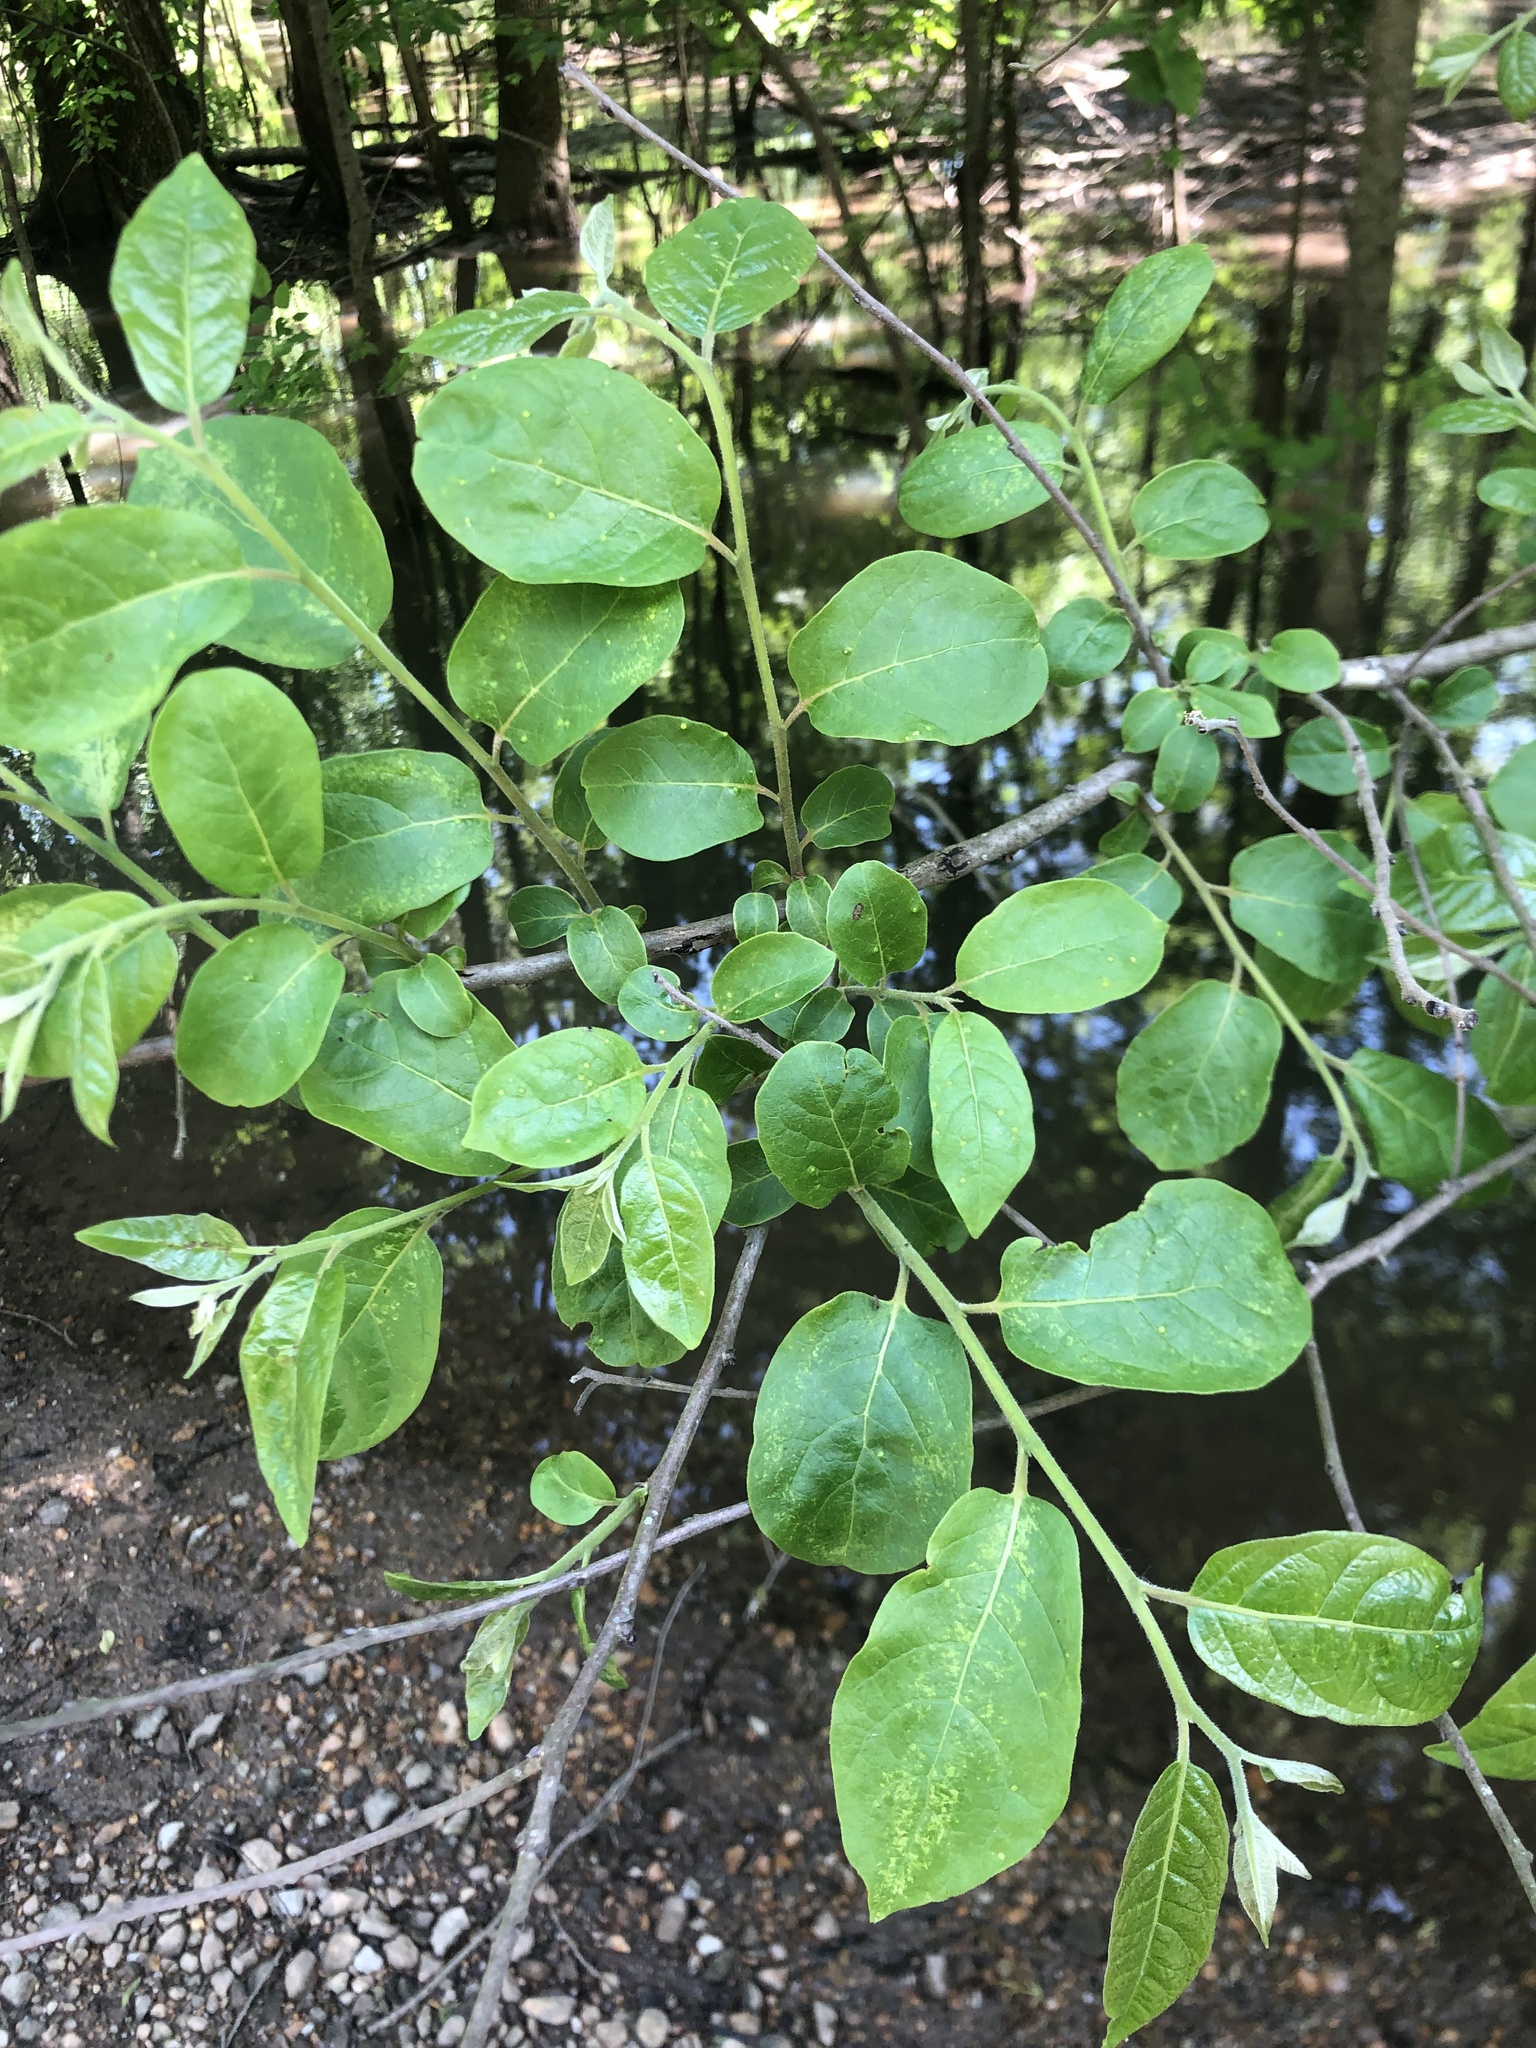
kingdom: Plantae
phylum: Tracheophyta
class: Magnoliopsida
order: Ericales
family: Ebenaceae
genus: Diospyros
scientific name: Diospyros virginiana
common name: Persimmon
